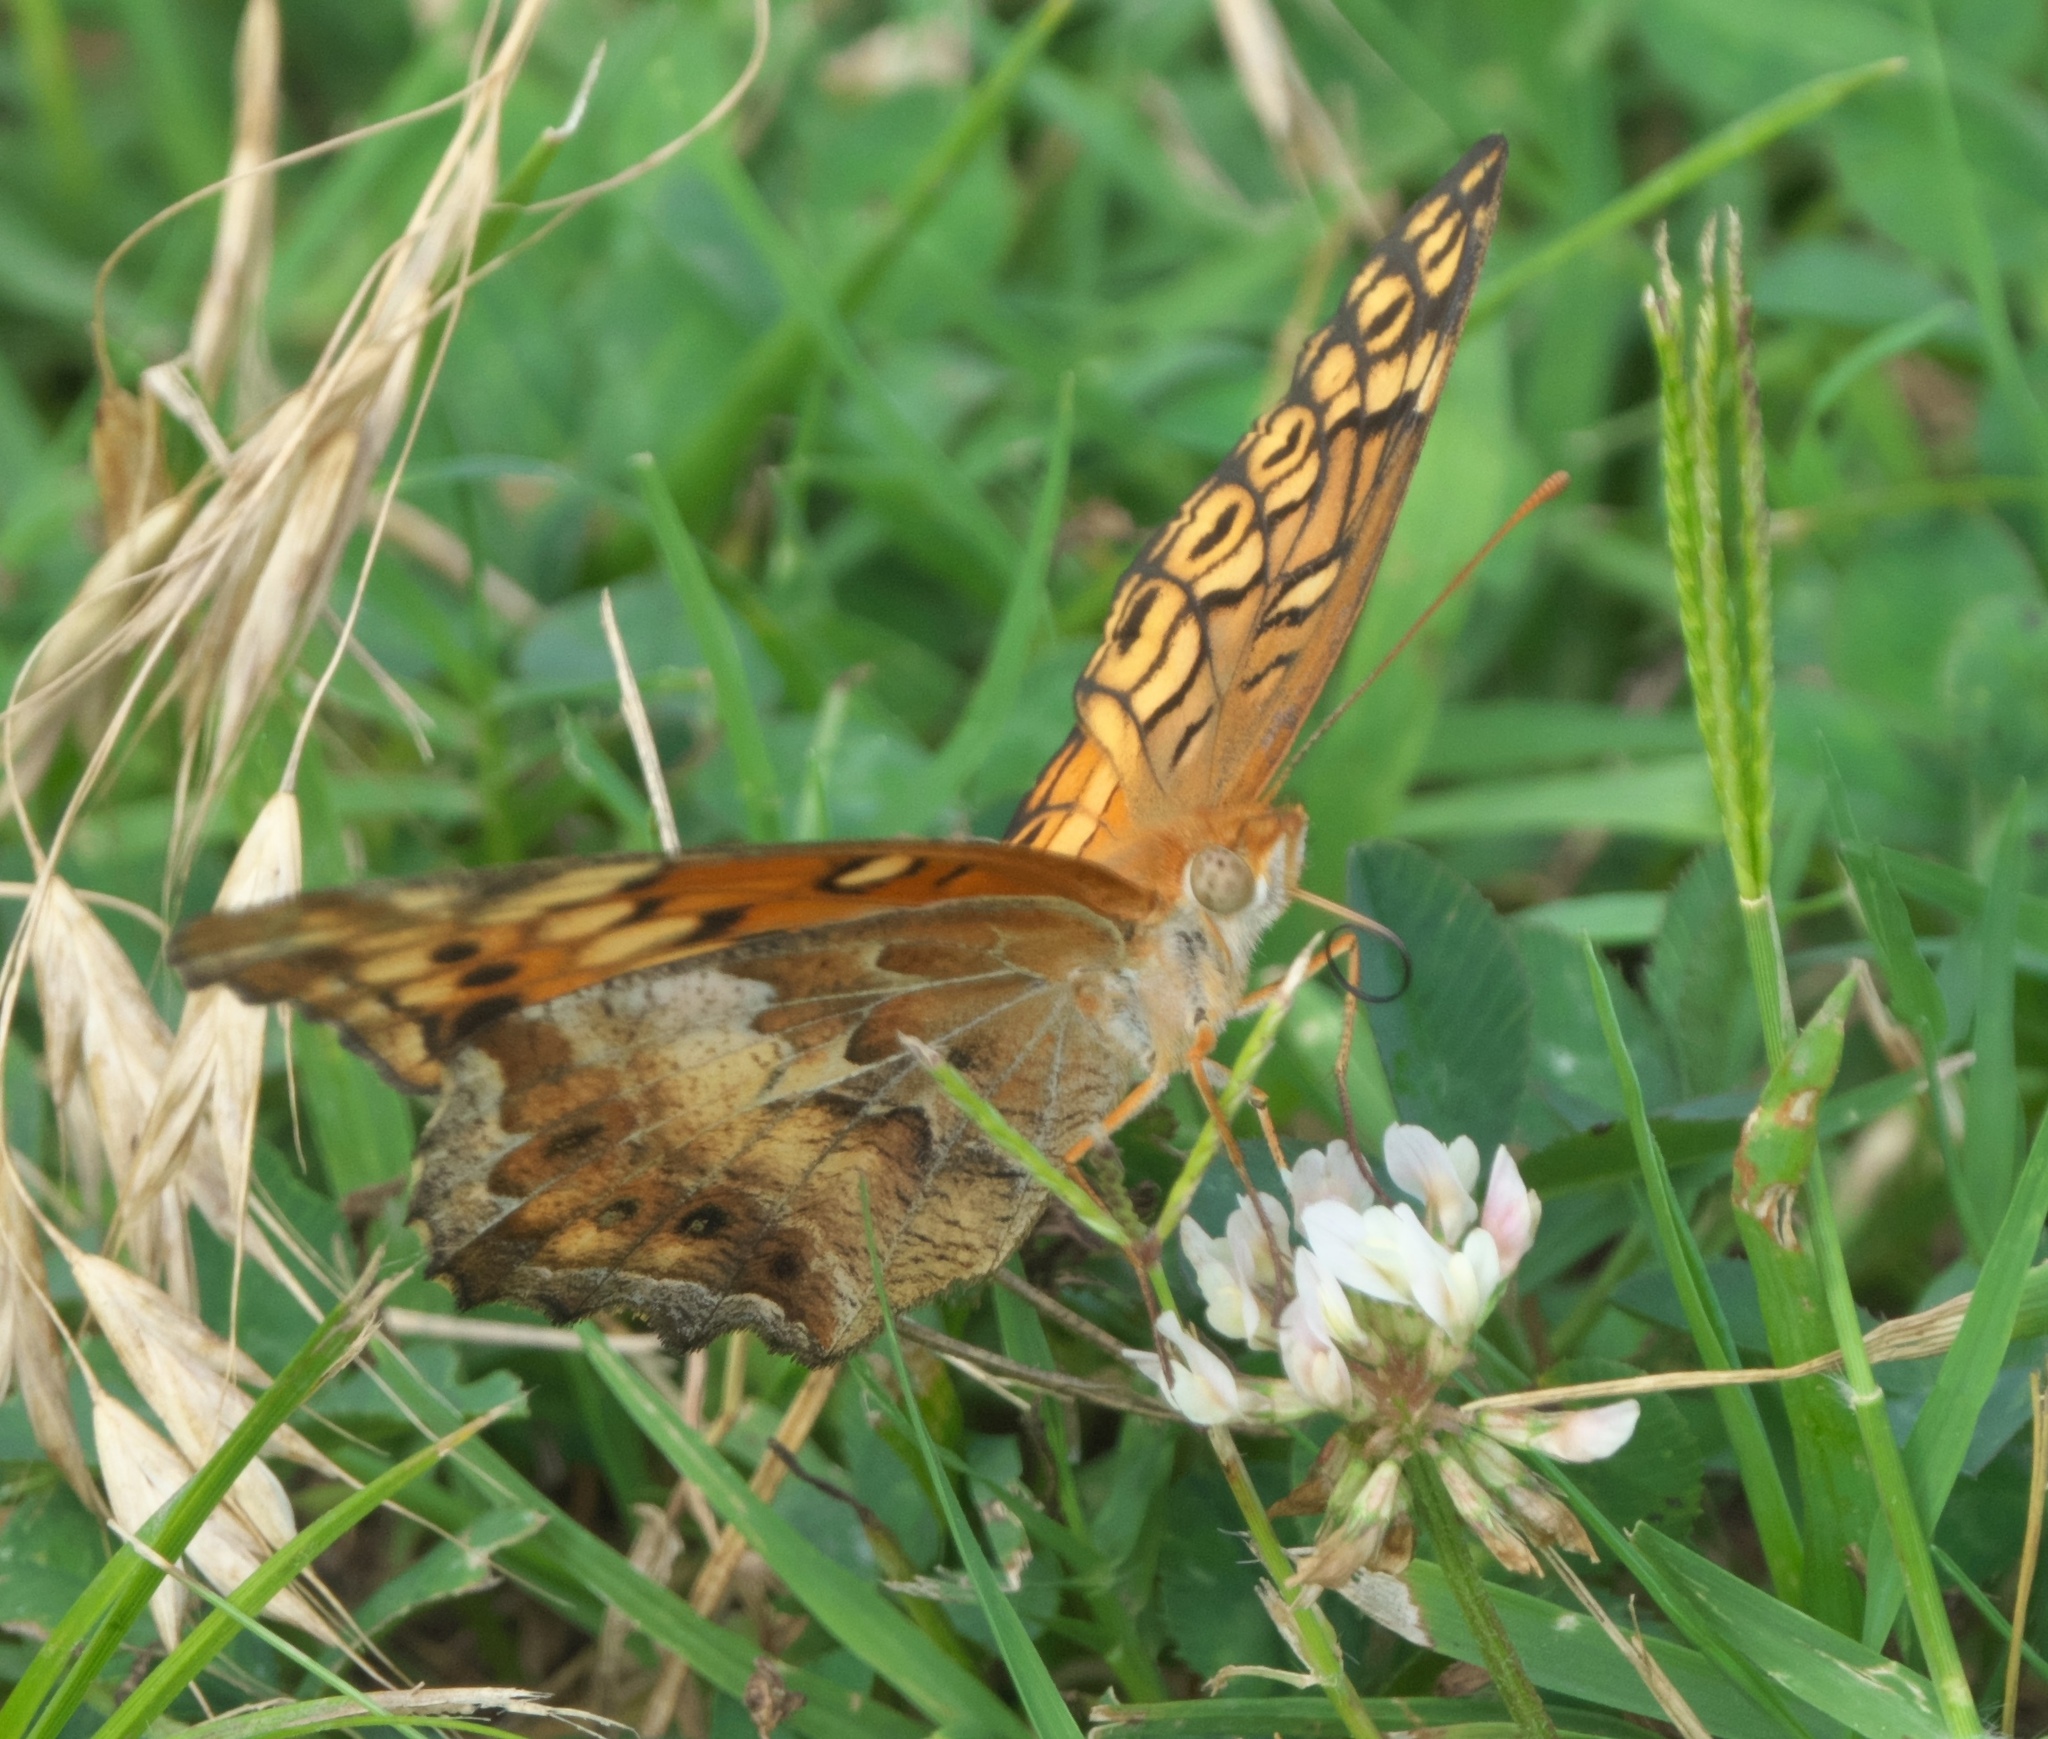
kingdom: Animalia
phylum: Arthropoda
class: Insecta
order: Lepidoptera
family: Nymphalidae
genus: Euptoieta
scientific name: Euptoieta claudia
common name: Variegated fritillary
